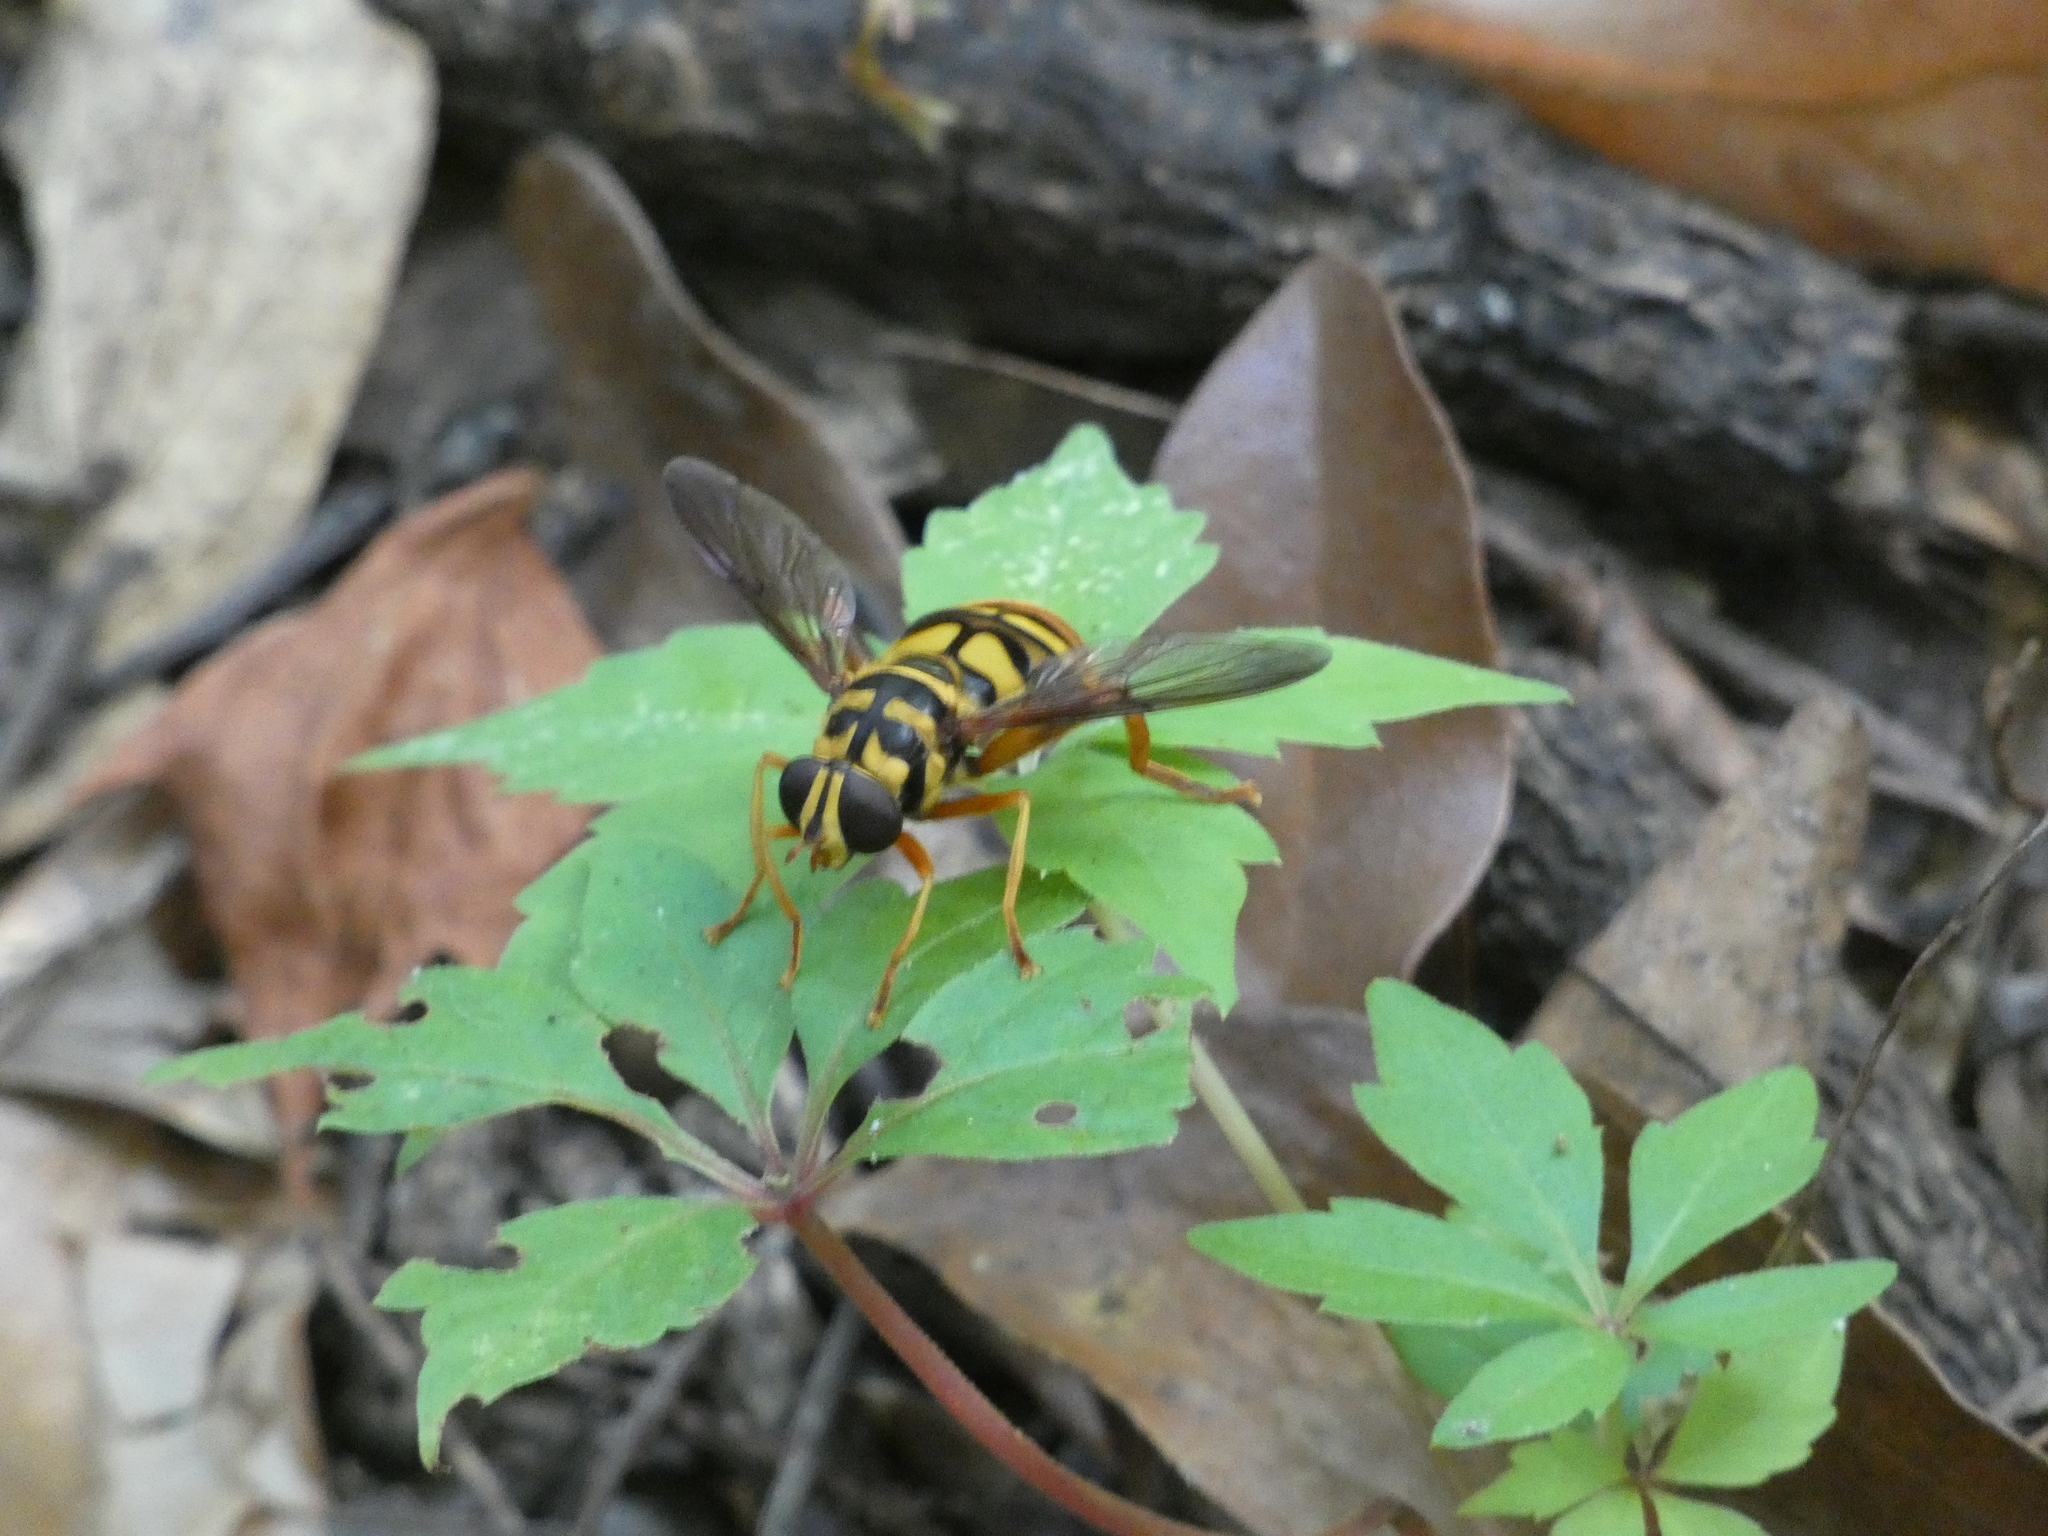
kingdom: Animalia
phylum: Arthropoda
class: Insecta
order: Diptera
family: Syrphidae
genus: Milesia
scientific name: Milesia virginiensis
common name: Virginia giant
